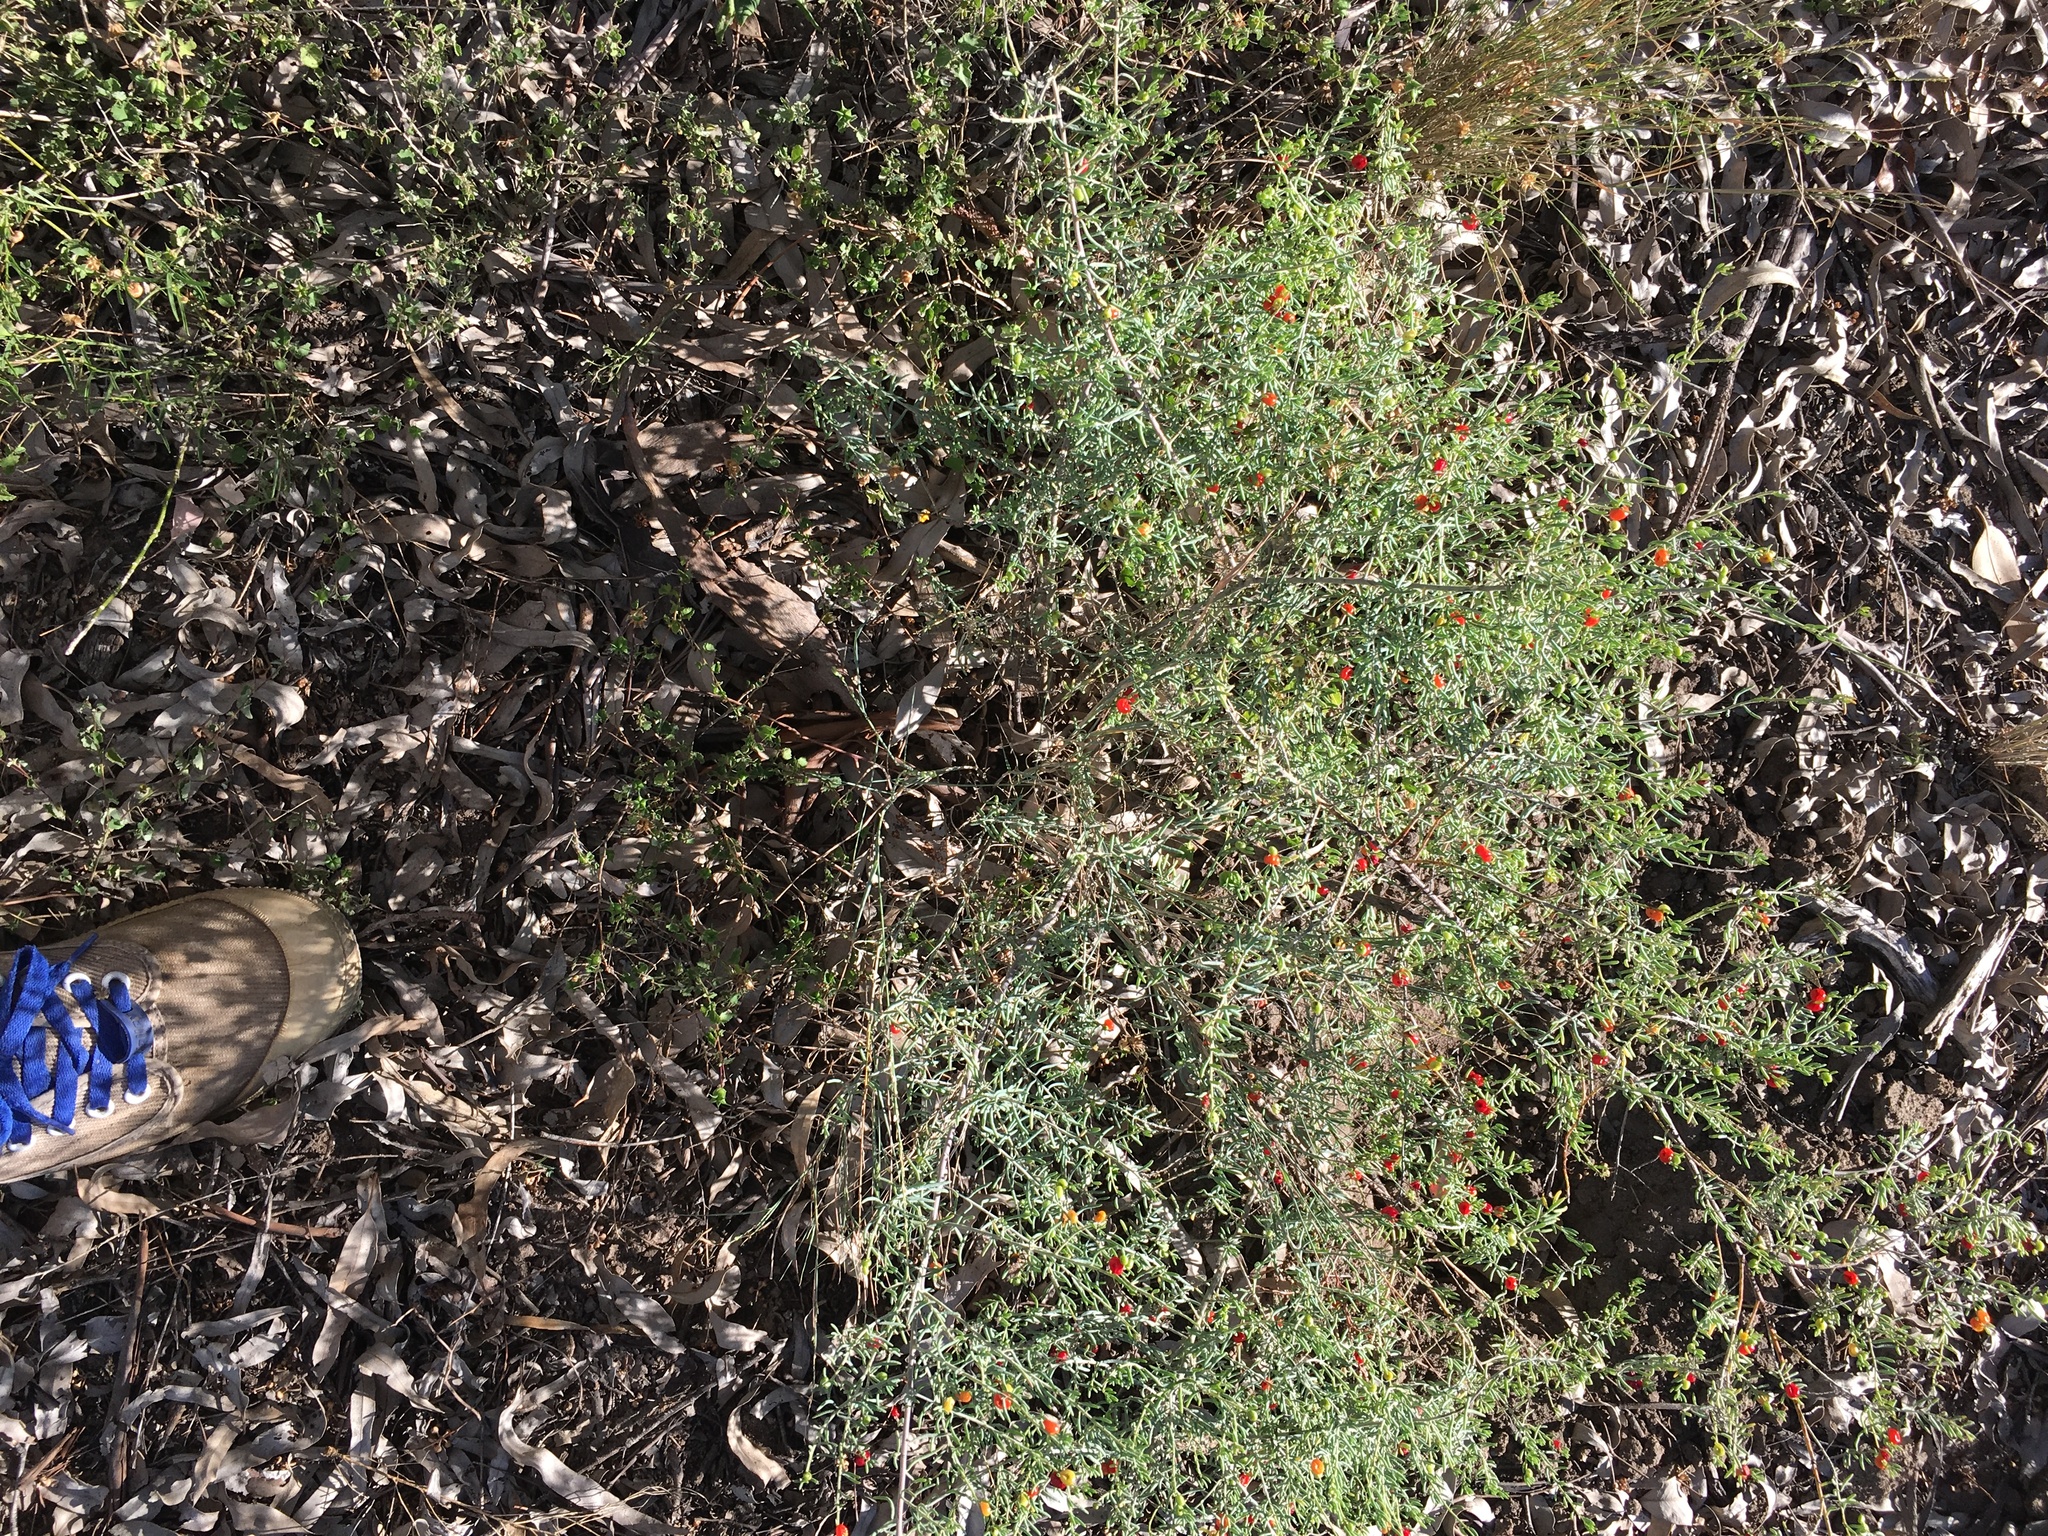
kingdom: Plantae
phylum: Tracheophyta
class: Magnoliopsida
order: Caryophyllales
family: Amaranthaceae
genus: Enchylaena
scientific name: Enchylaena tomentosa
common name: Ruby saltbush
